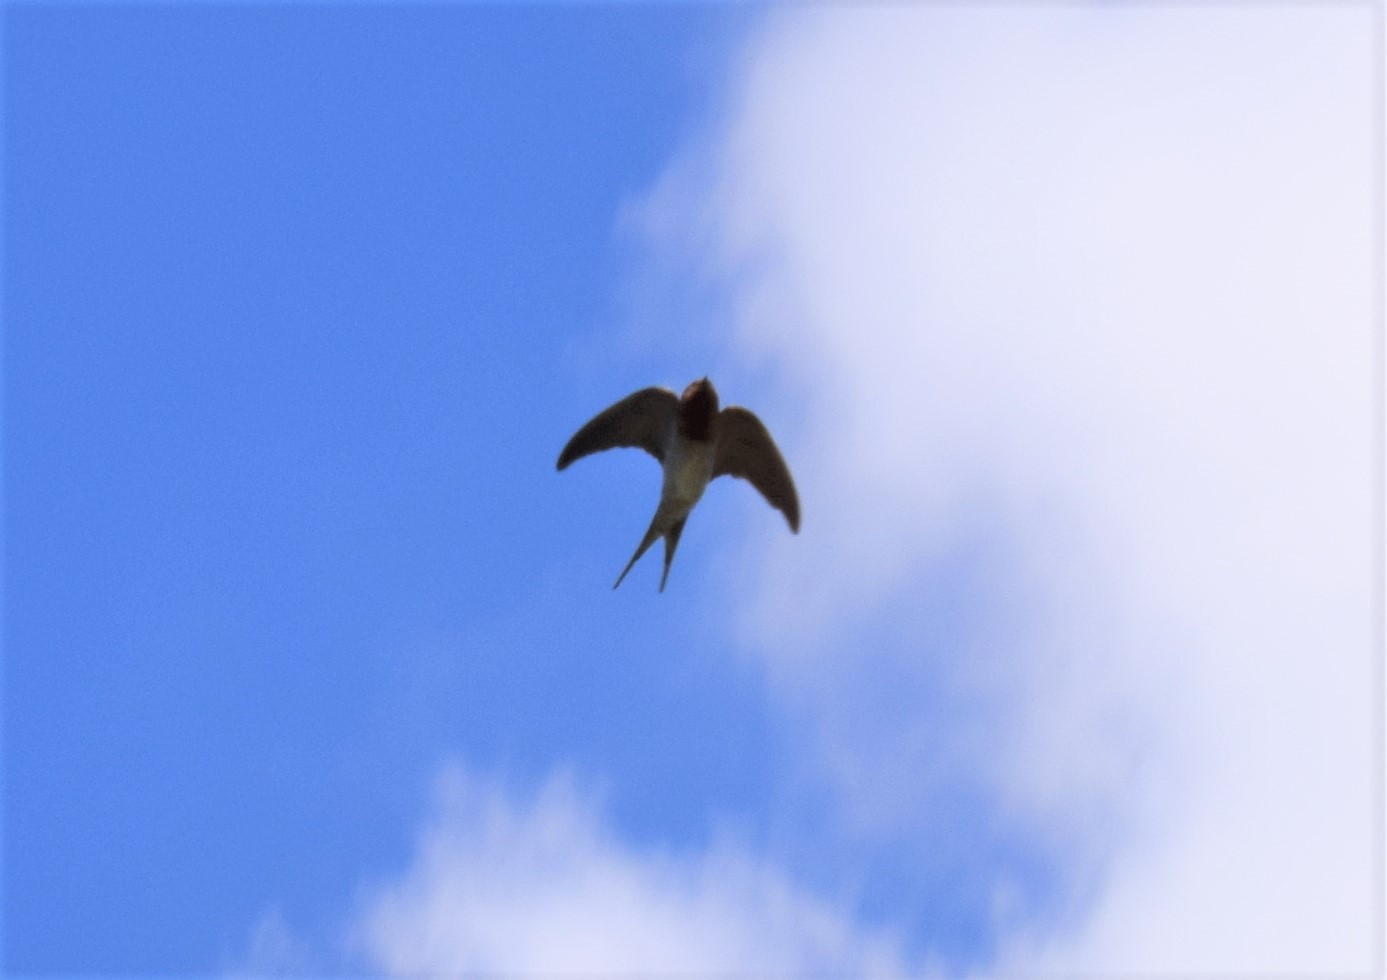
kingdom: Animalia
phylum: Chordata
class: Aves
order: Passeriformes
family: Hirundinidae
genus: Hirundo
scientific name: Hirundo neoxena
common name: Welcome swallow
